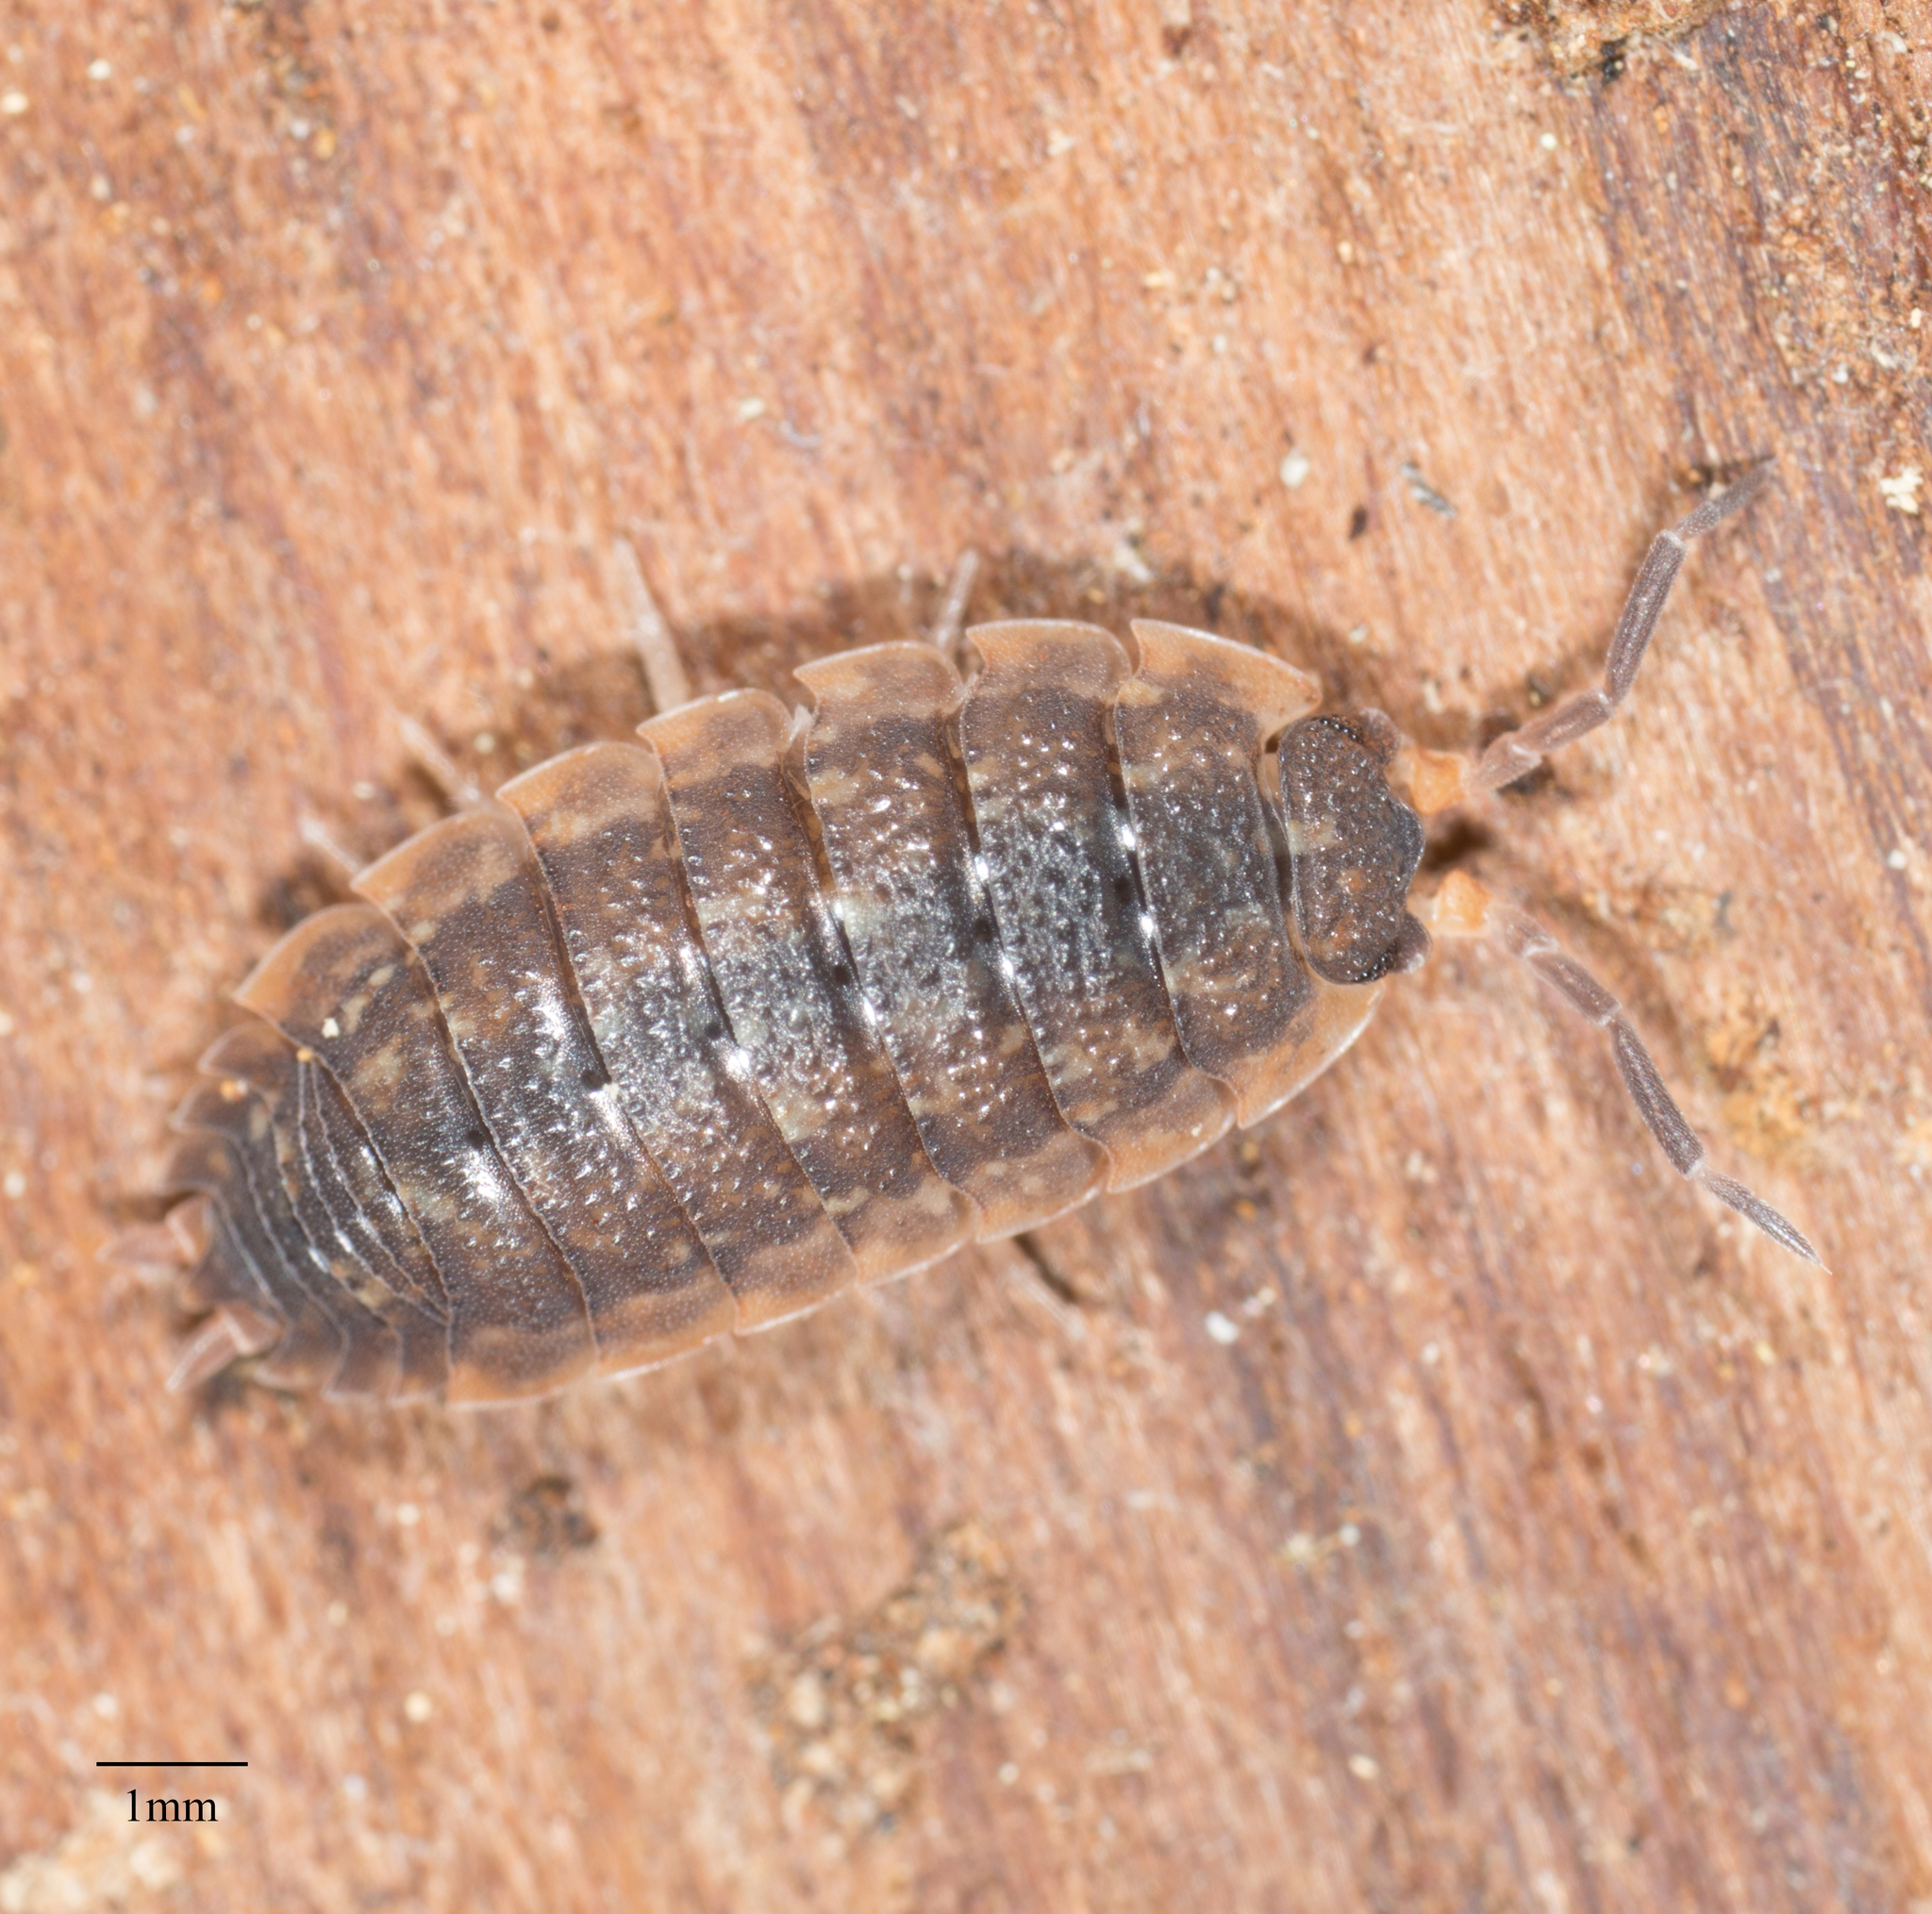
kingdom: Animalia
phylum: Arthropoda
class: Malacostraca
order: Isopoda
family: Porcellionidae
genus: Porcellio
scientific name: Porcellio scaber
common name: Common rough woodlouse
